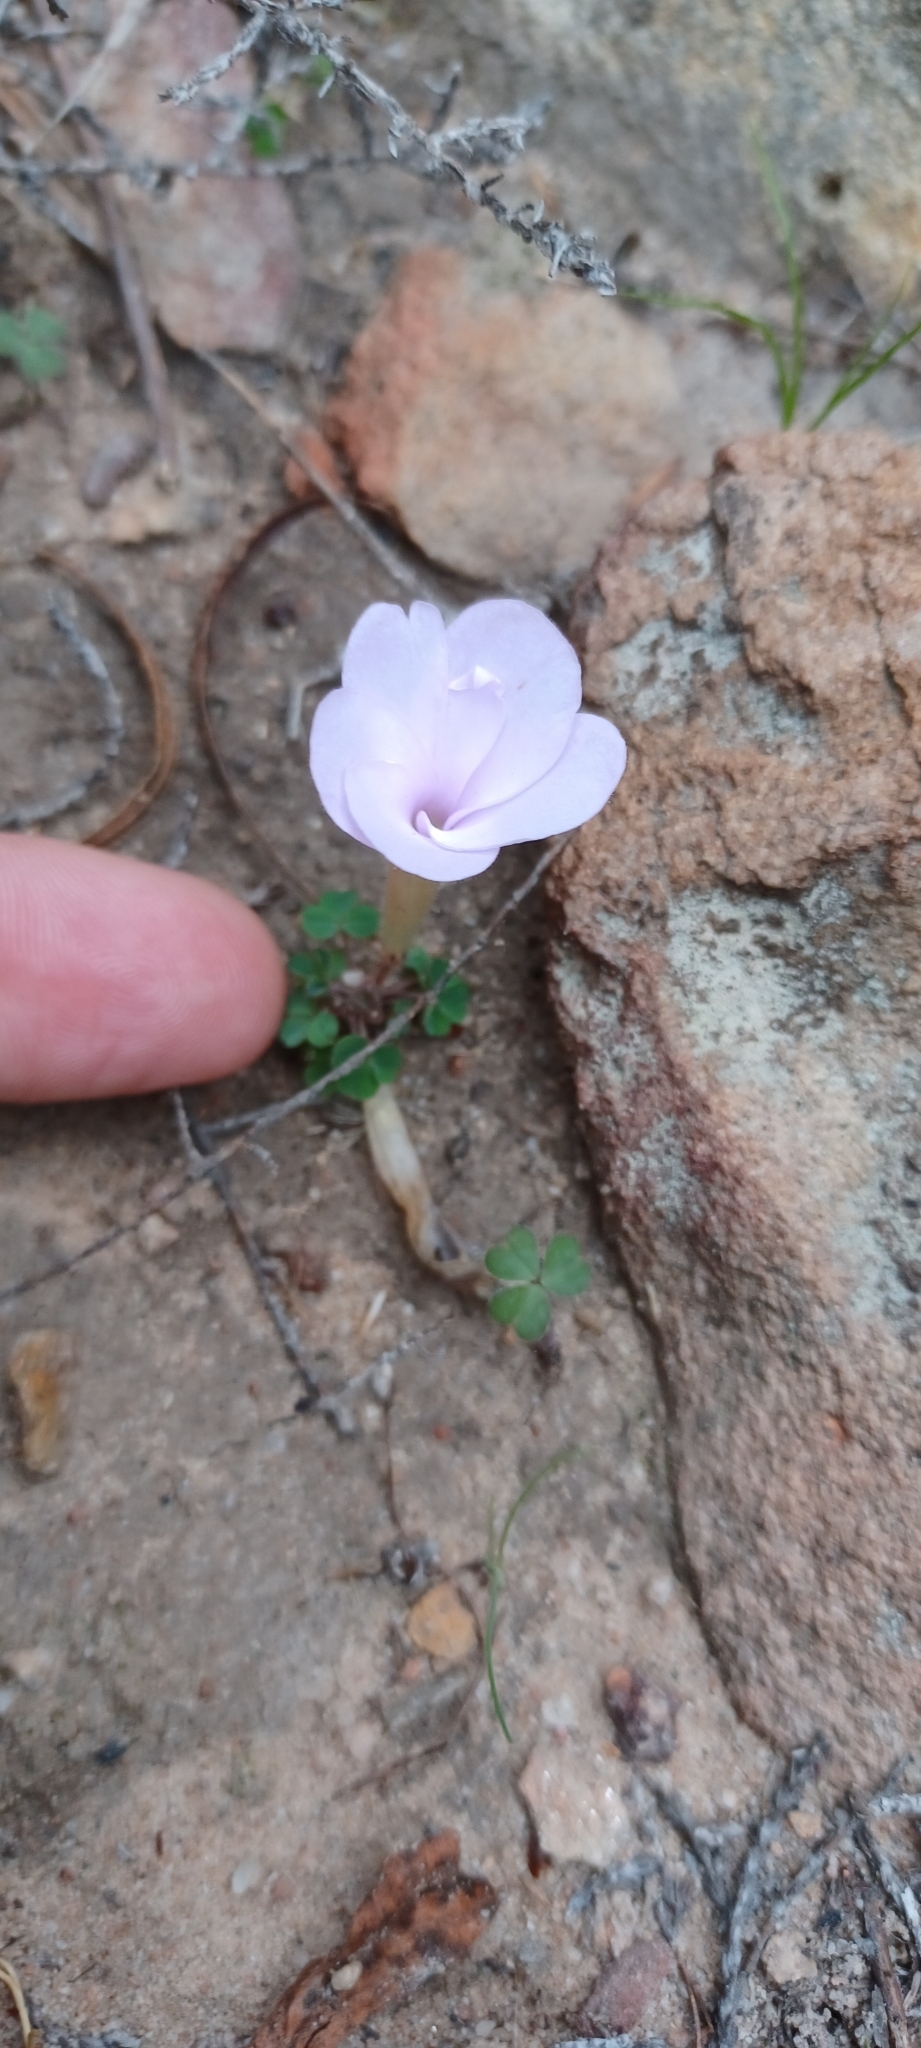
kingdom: Plantae
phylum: Tracheophyta
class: Magnoliopsida
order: Oxalidales
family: Oxalidaceae
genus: Oxalis
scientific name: Oxalis fibrosa
